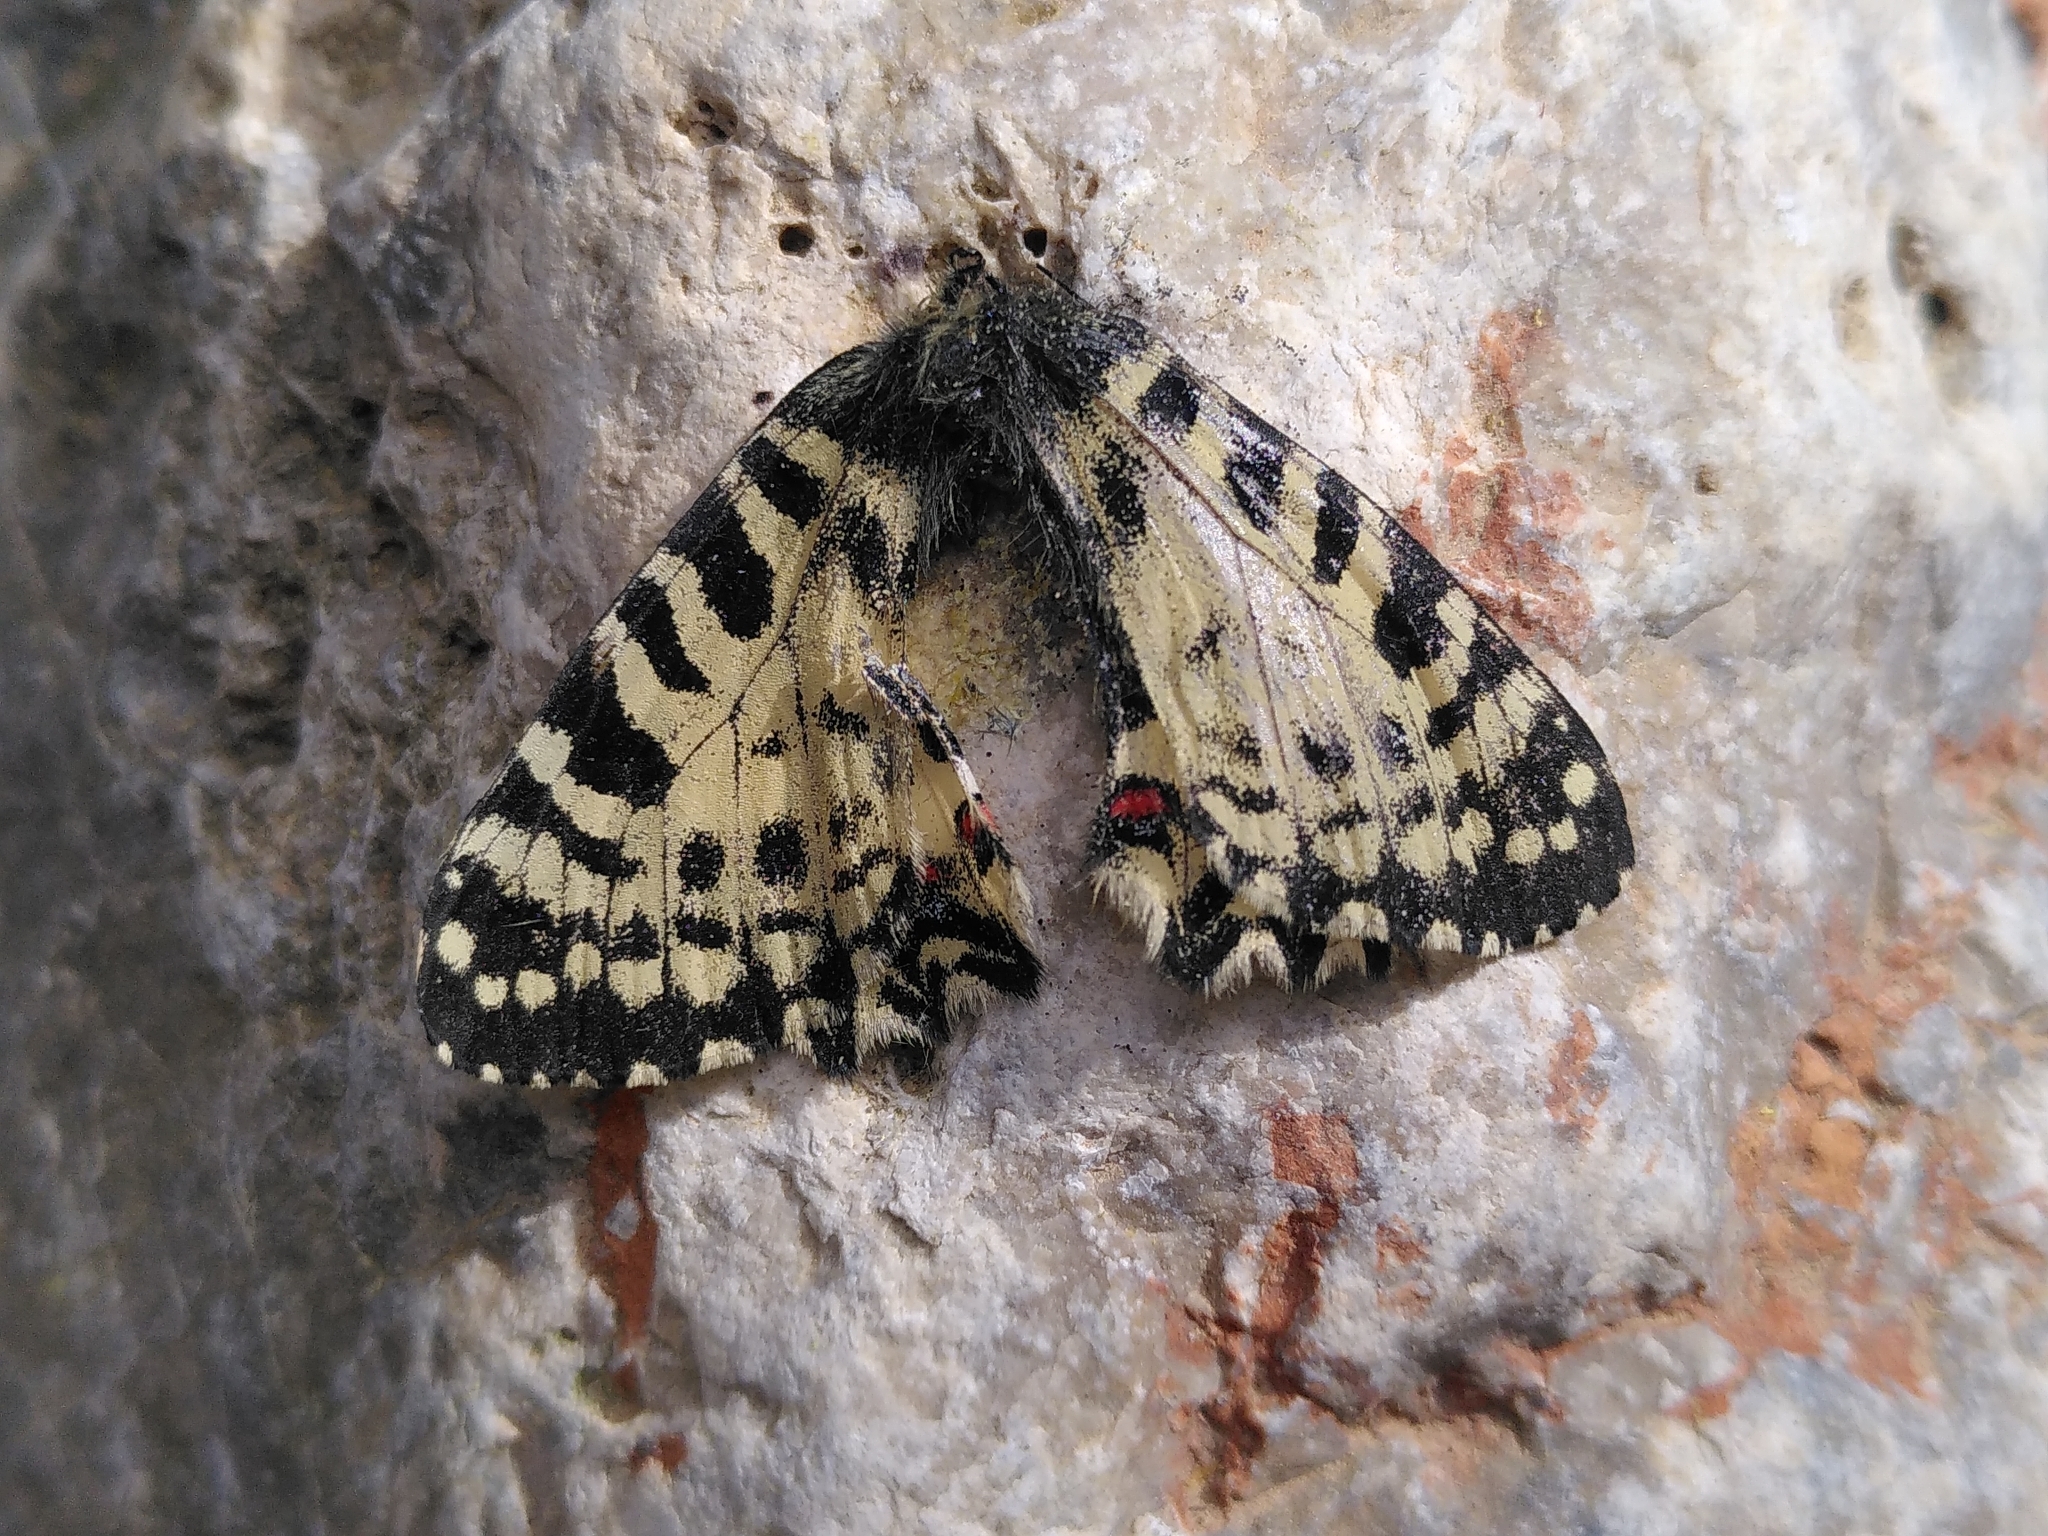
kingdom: Animalia
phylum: Arthropoda
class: Insecta
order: Lepidoptera
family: Papilionidae
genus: Zerynthia
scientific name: Zerynthia cretica
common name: Cretan festoon
